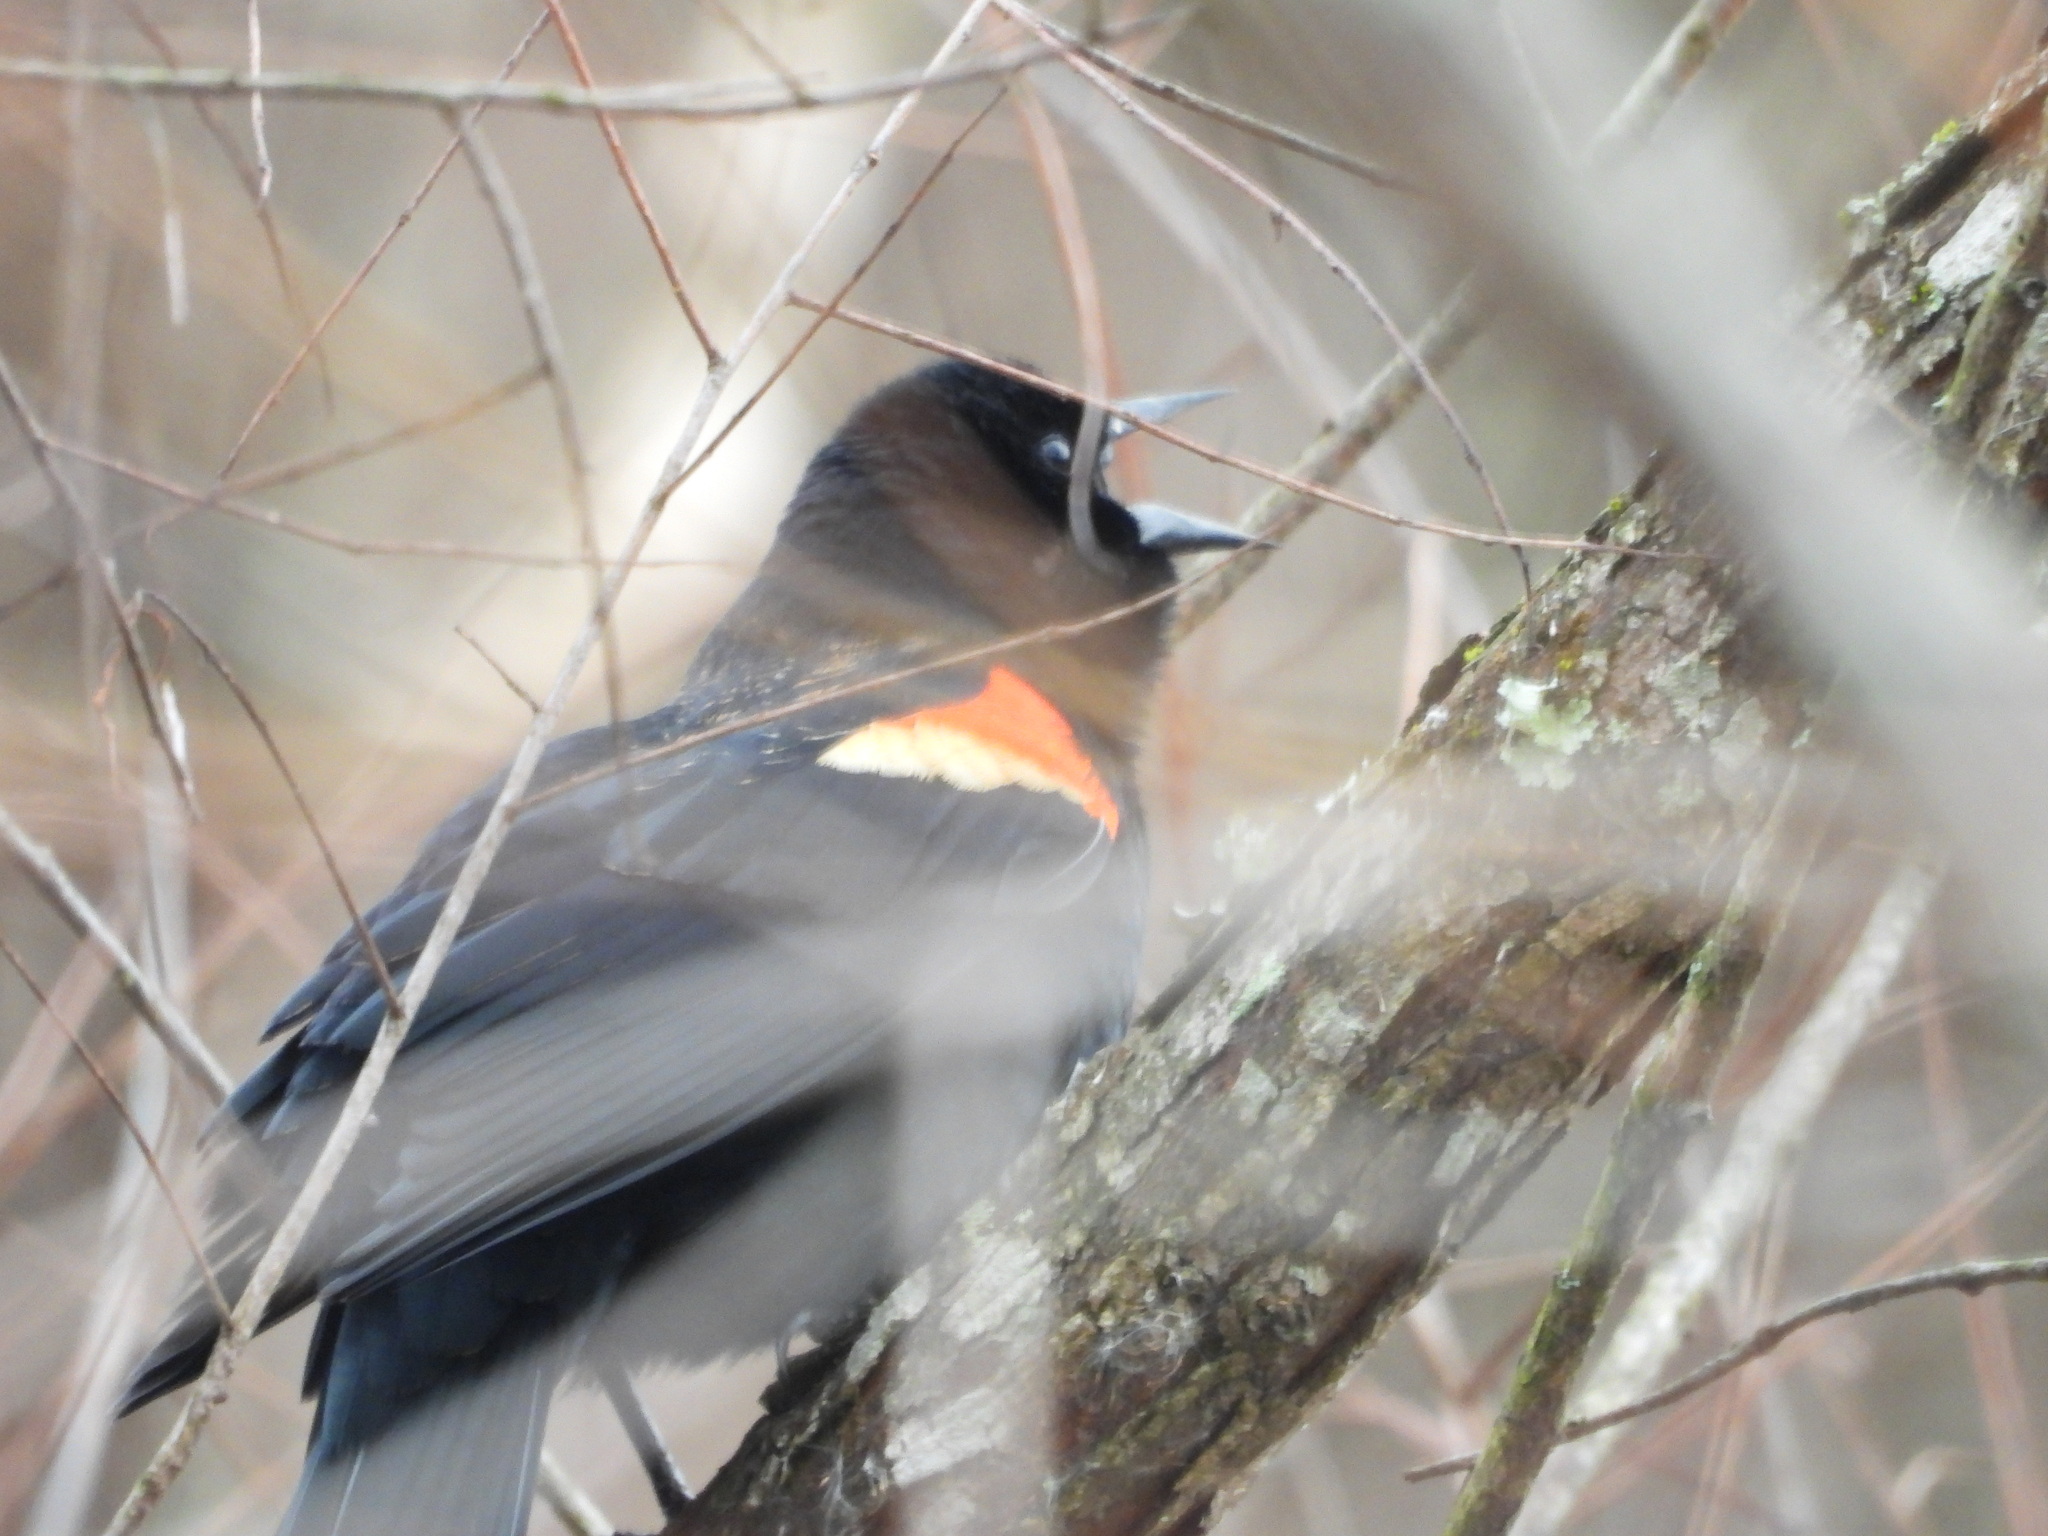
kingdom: Animalia
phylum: Chordata
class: Aves
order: Passeriformes
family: Icteridae
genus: Agelaius
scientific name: Agelaius phoeniceus
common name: Red-winged blackbird
